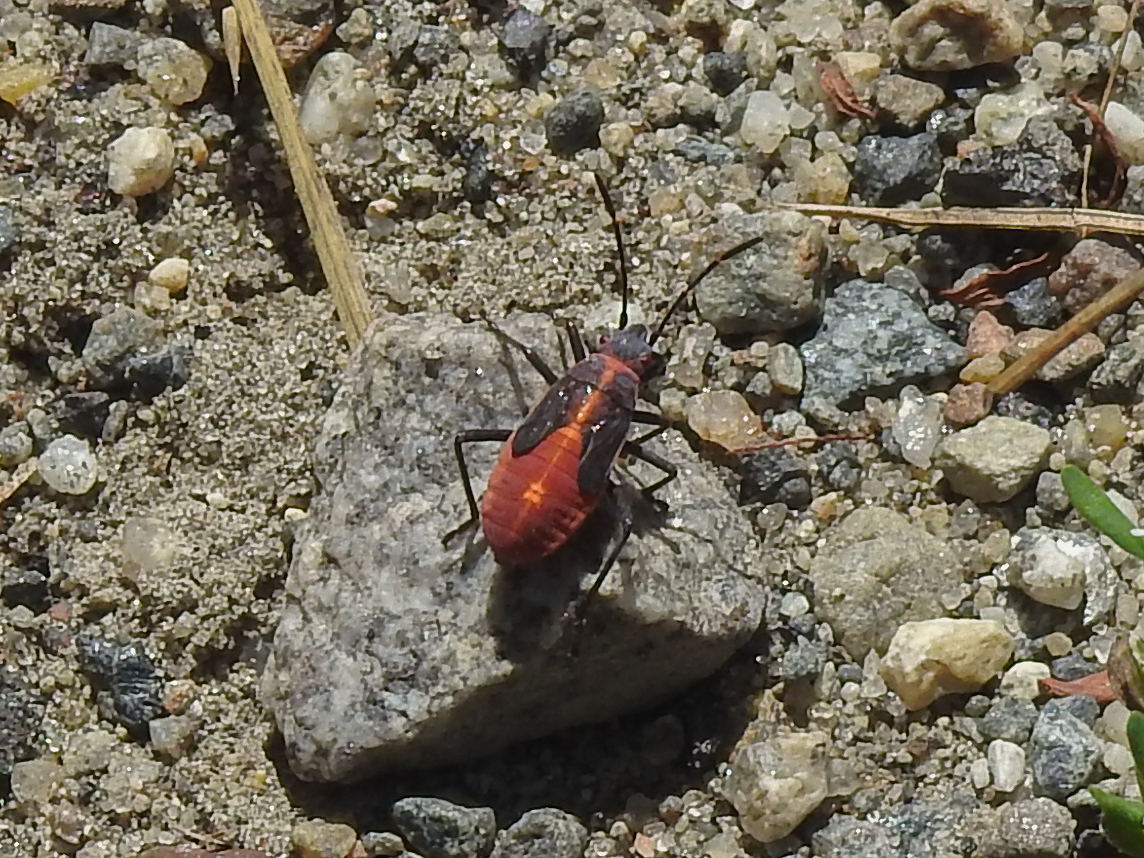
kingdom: Animalia
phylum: Arthropoda
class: Insecta
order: Hemiptera
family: Rhopalidae
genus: Boisea
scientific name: Boisea trivittata
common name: Boxelder bug
